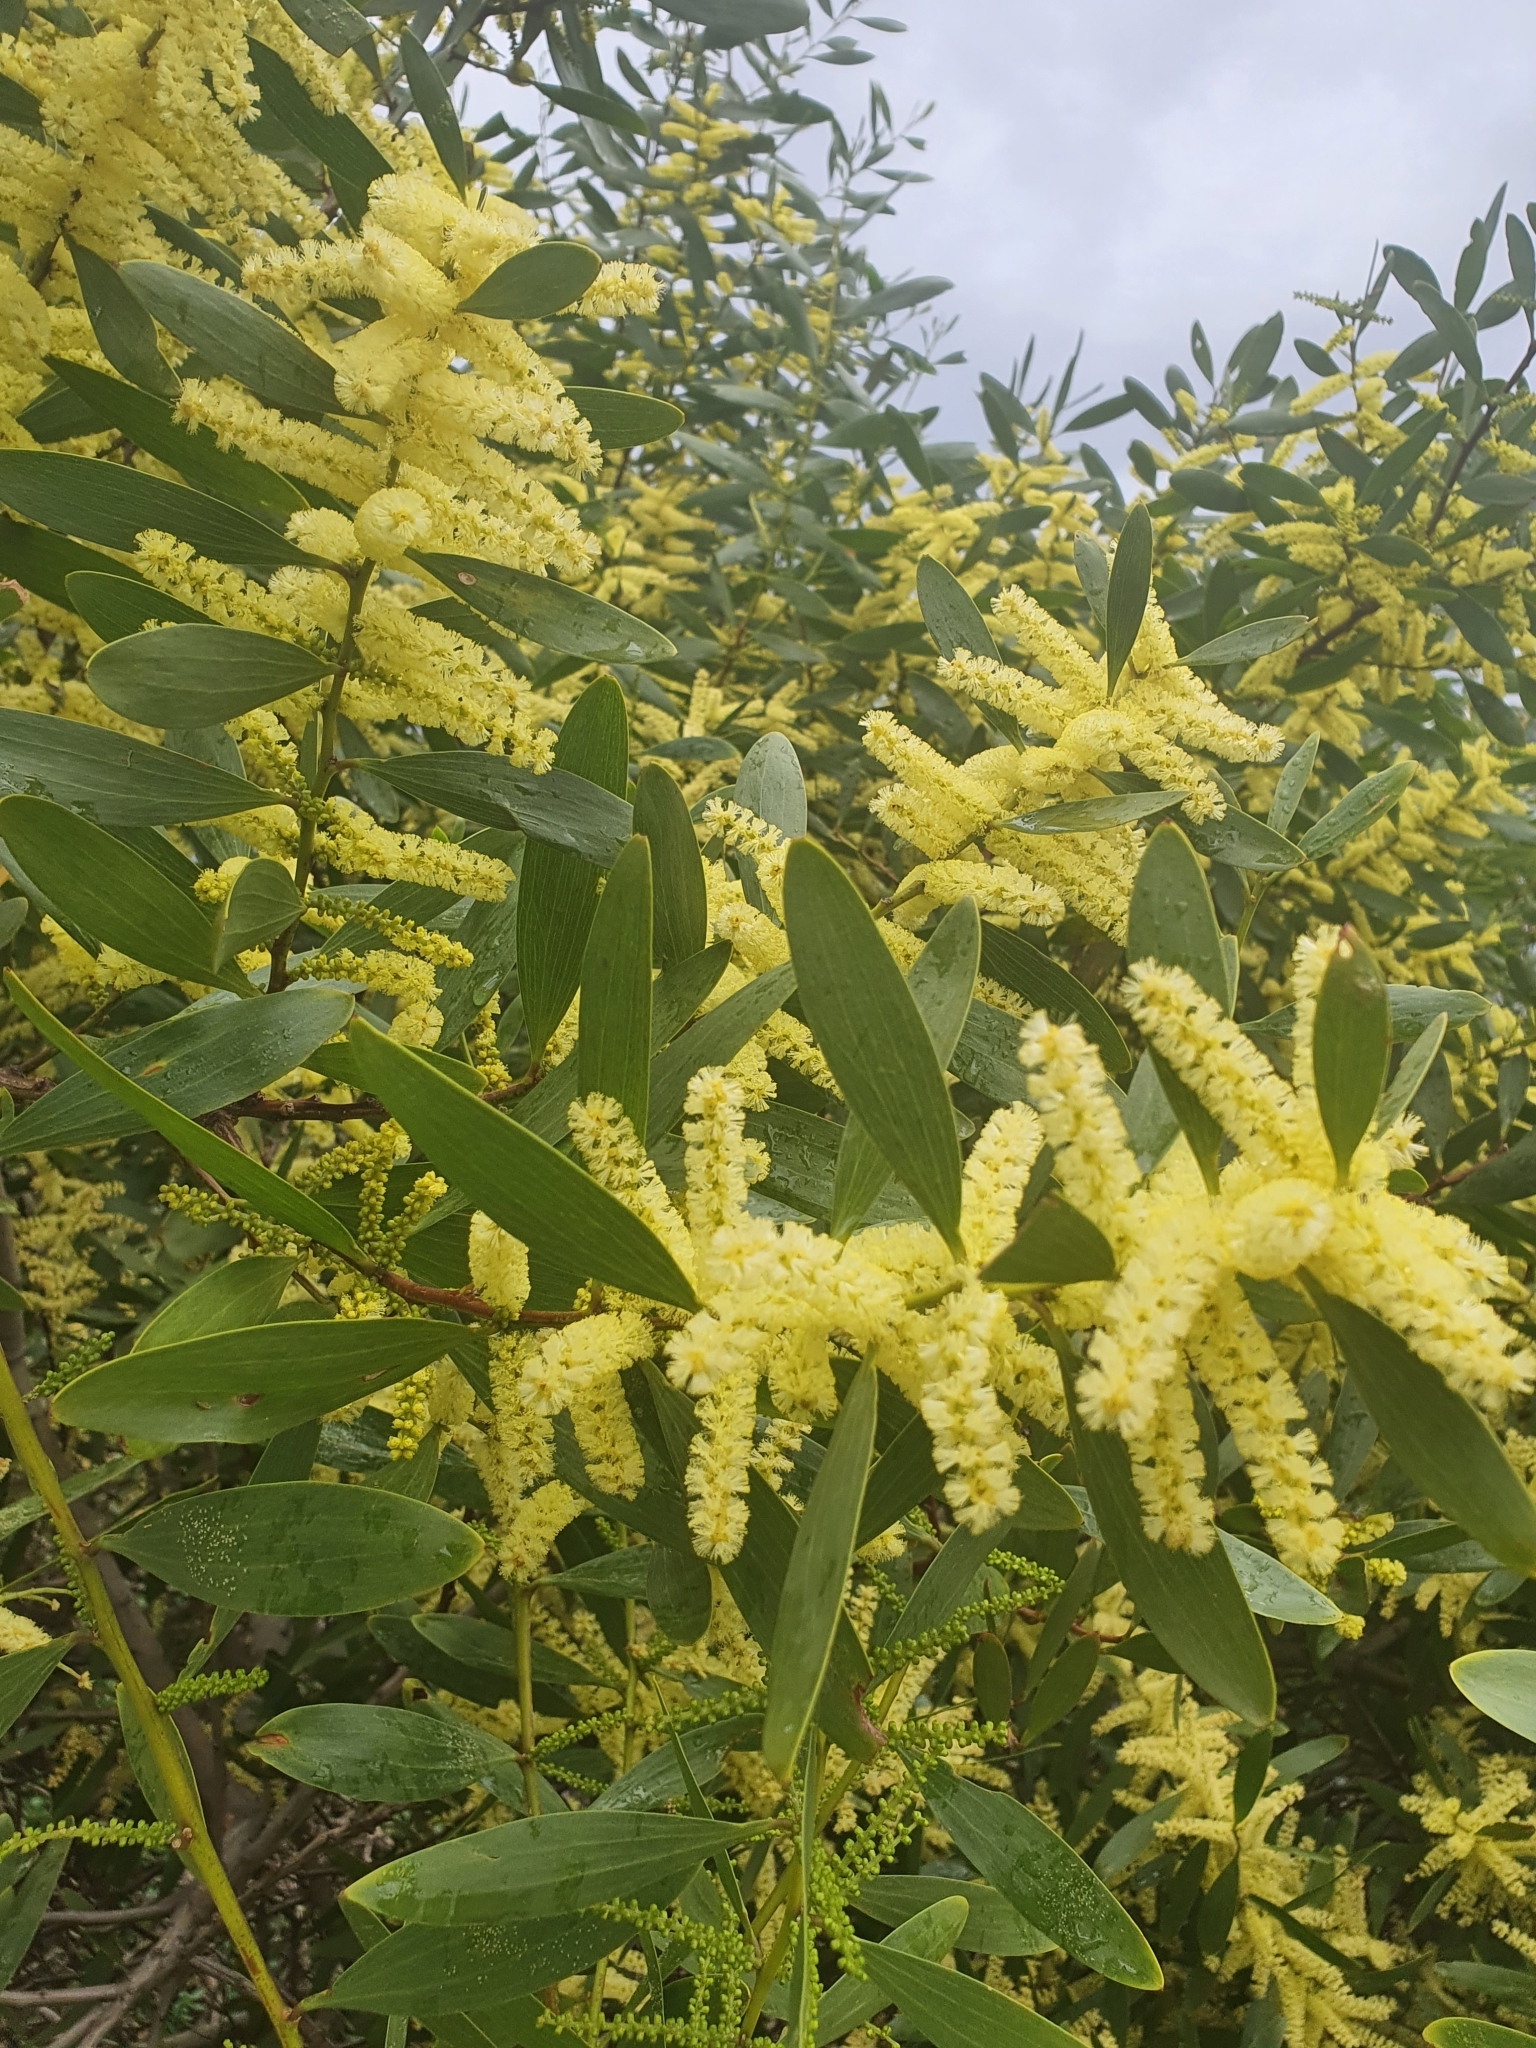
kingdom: Plantae
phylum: Tracheophyta
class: Magnoliopsida
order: Fabales
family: Fabaceae
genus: Acacia
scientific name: Acacia longifolia
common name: Sydney golden wattle
